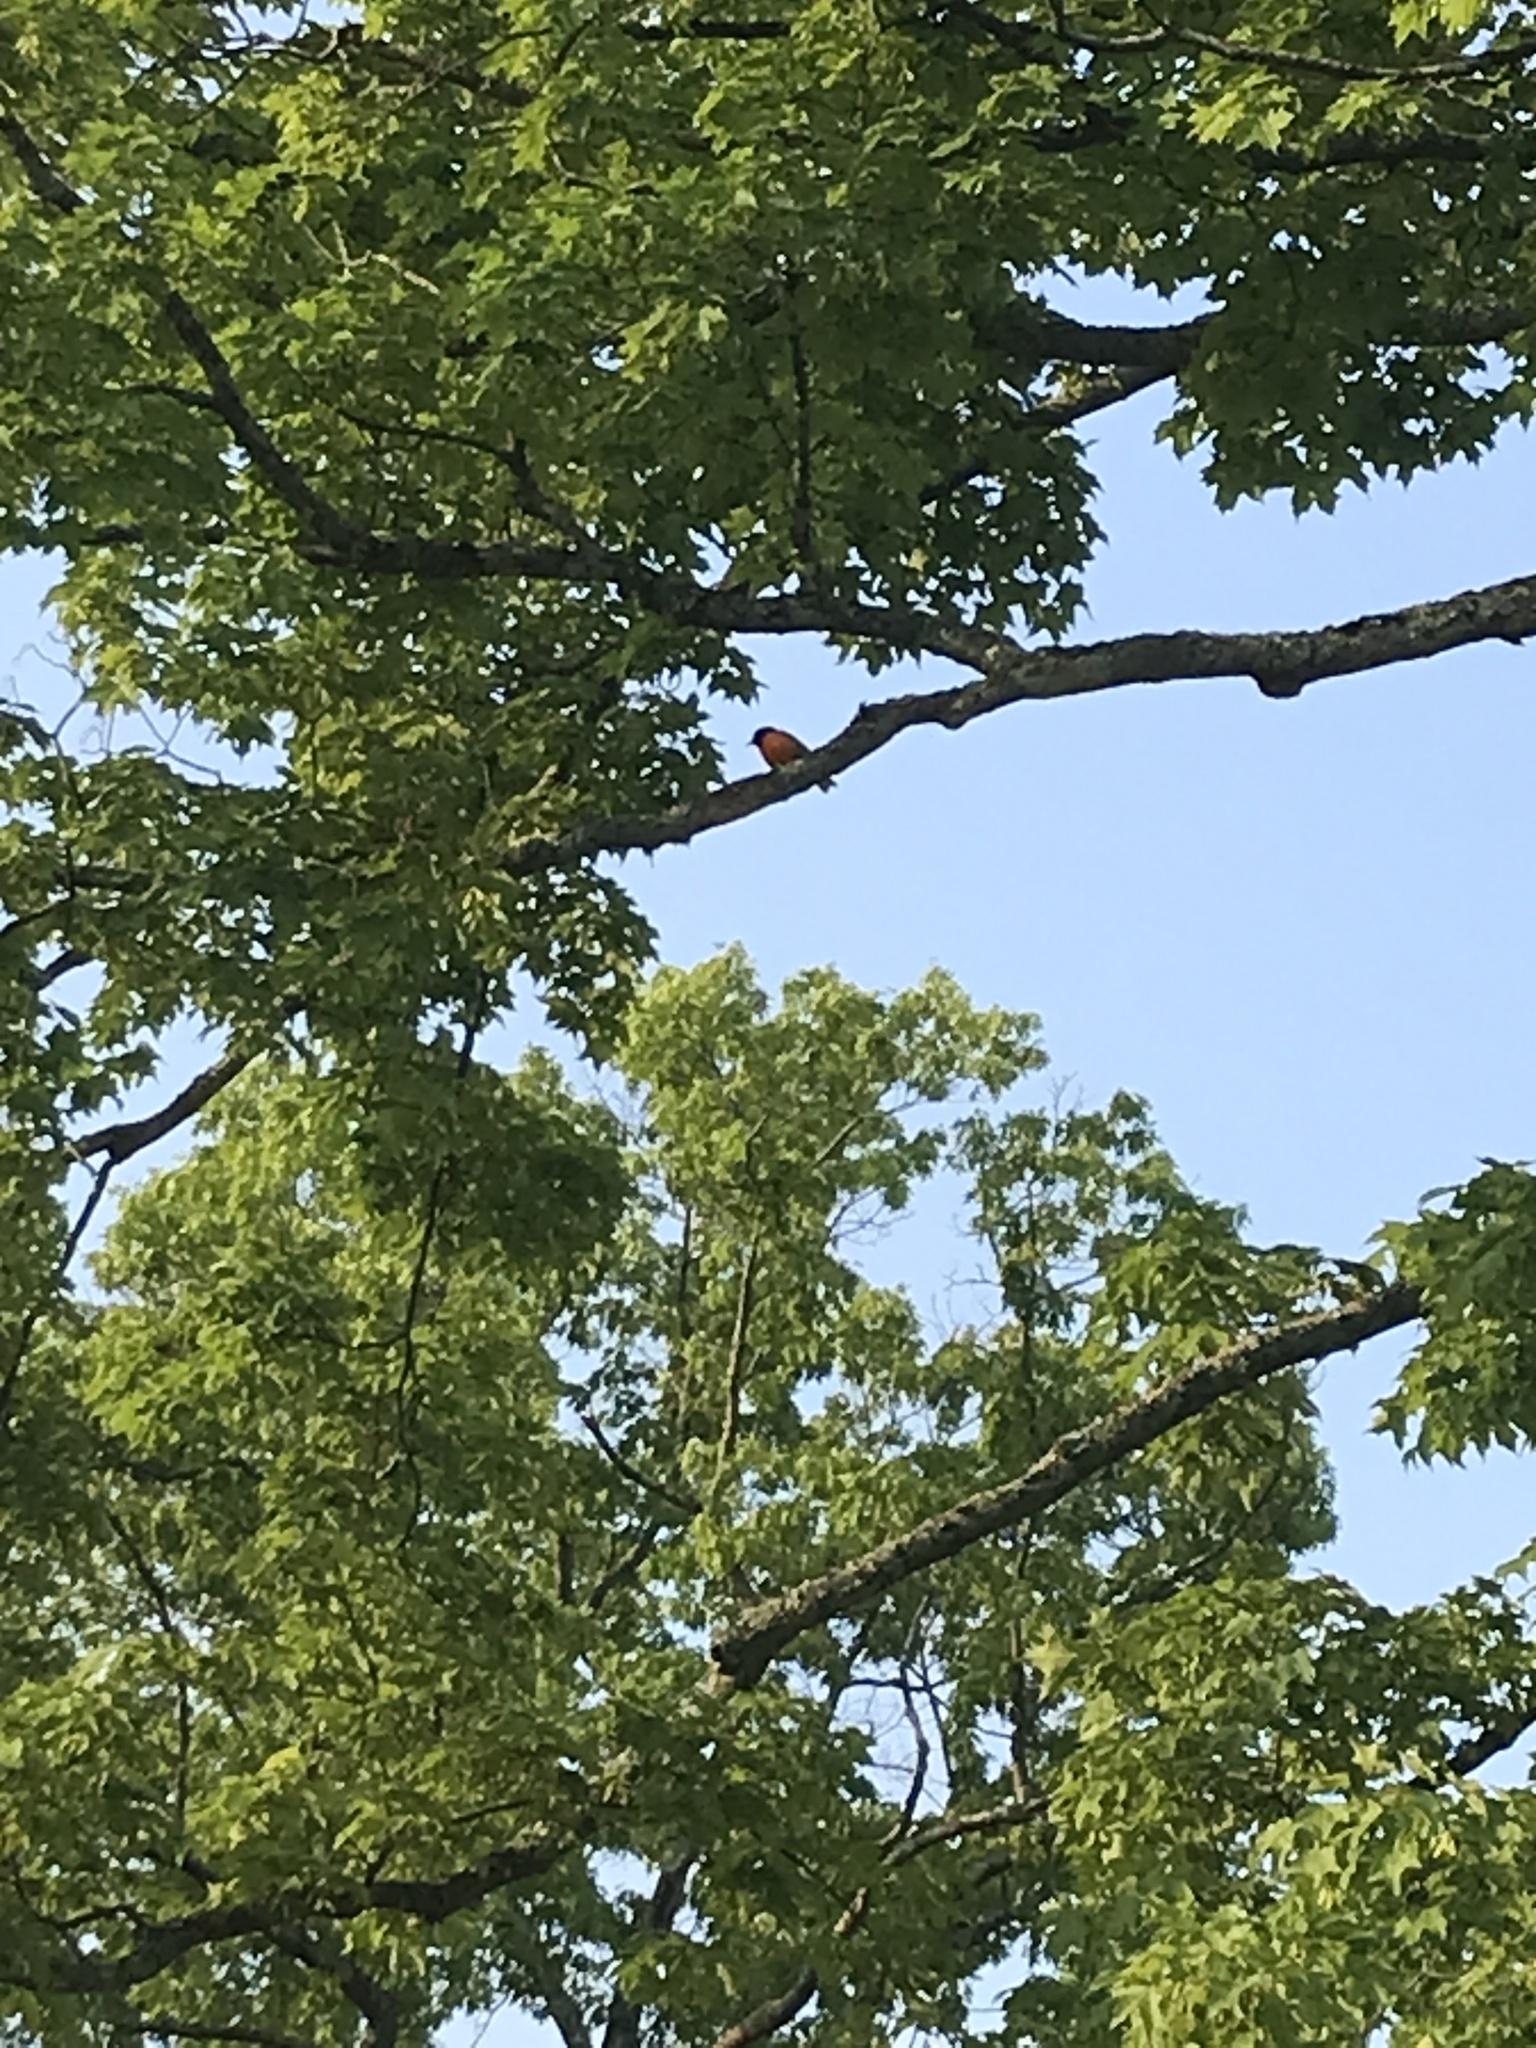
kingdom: Animalia
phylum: Chordata
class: Aves
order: Passeriformes
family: Icteridae
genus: Icterus
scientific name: Icterus galbula
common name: Baltimore oriole
